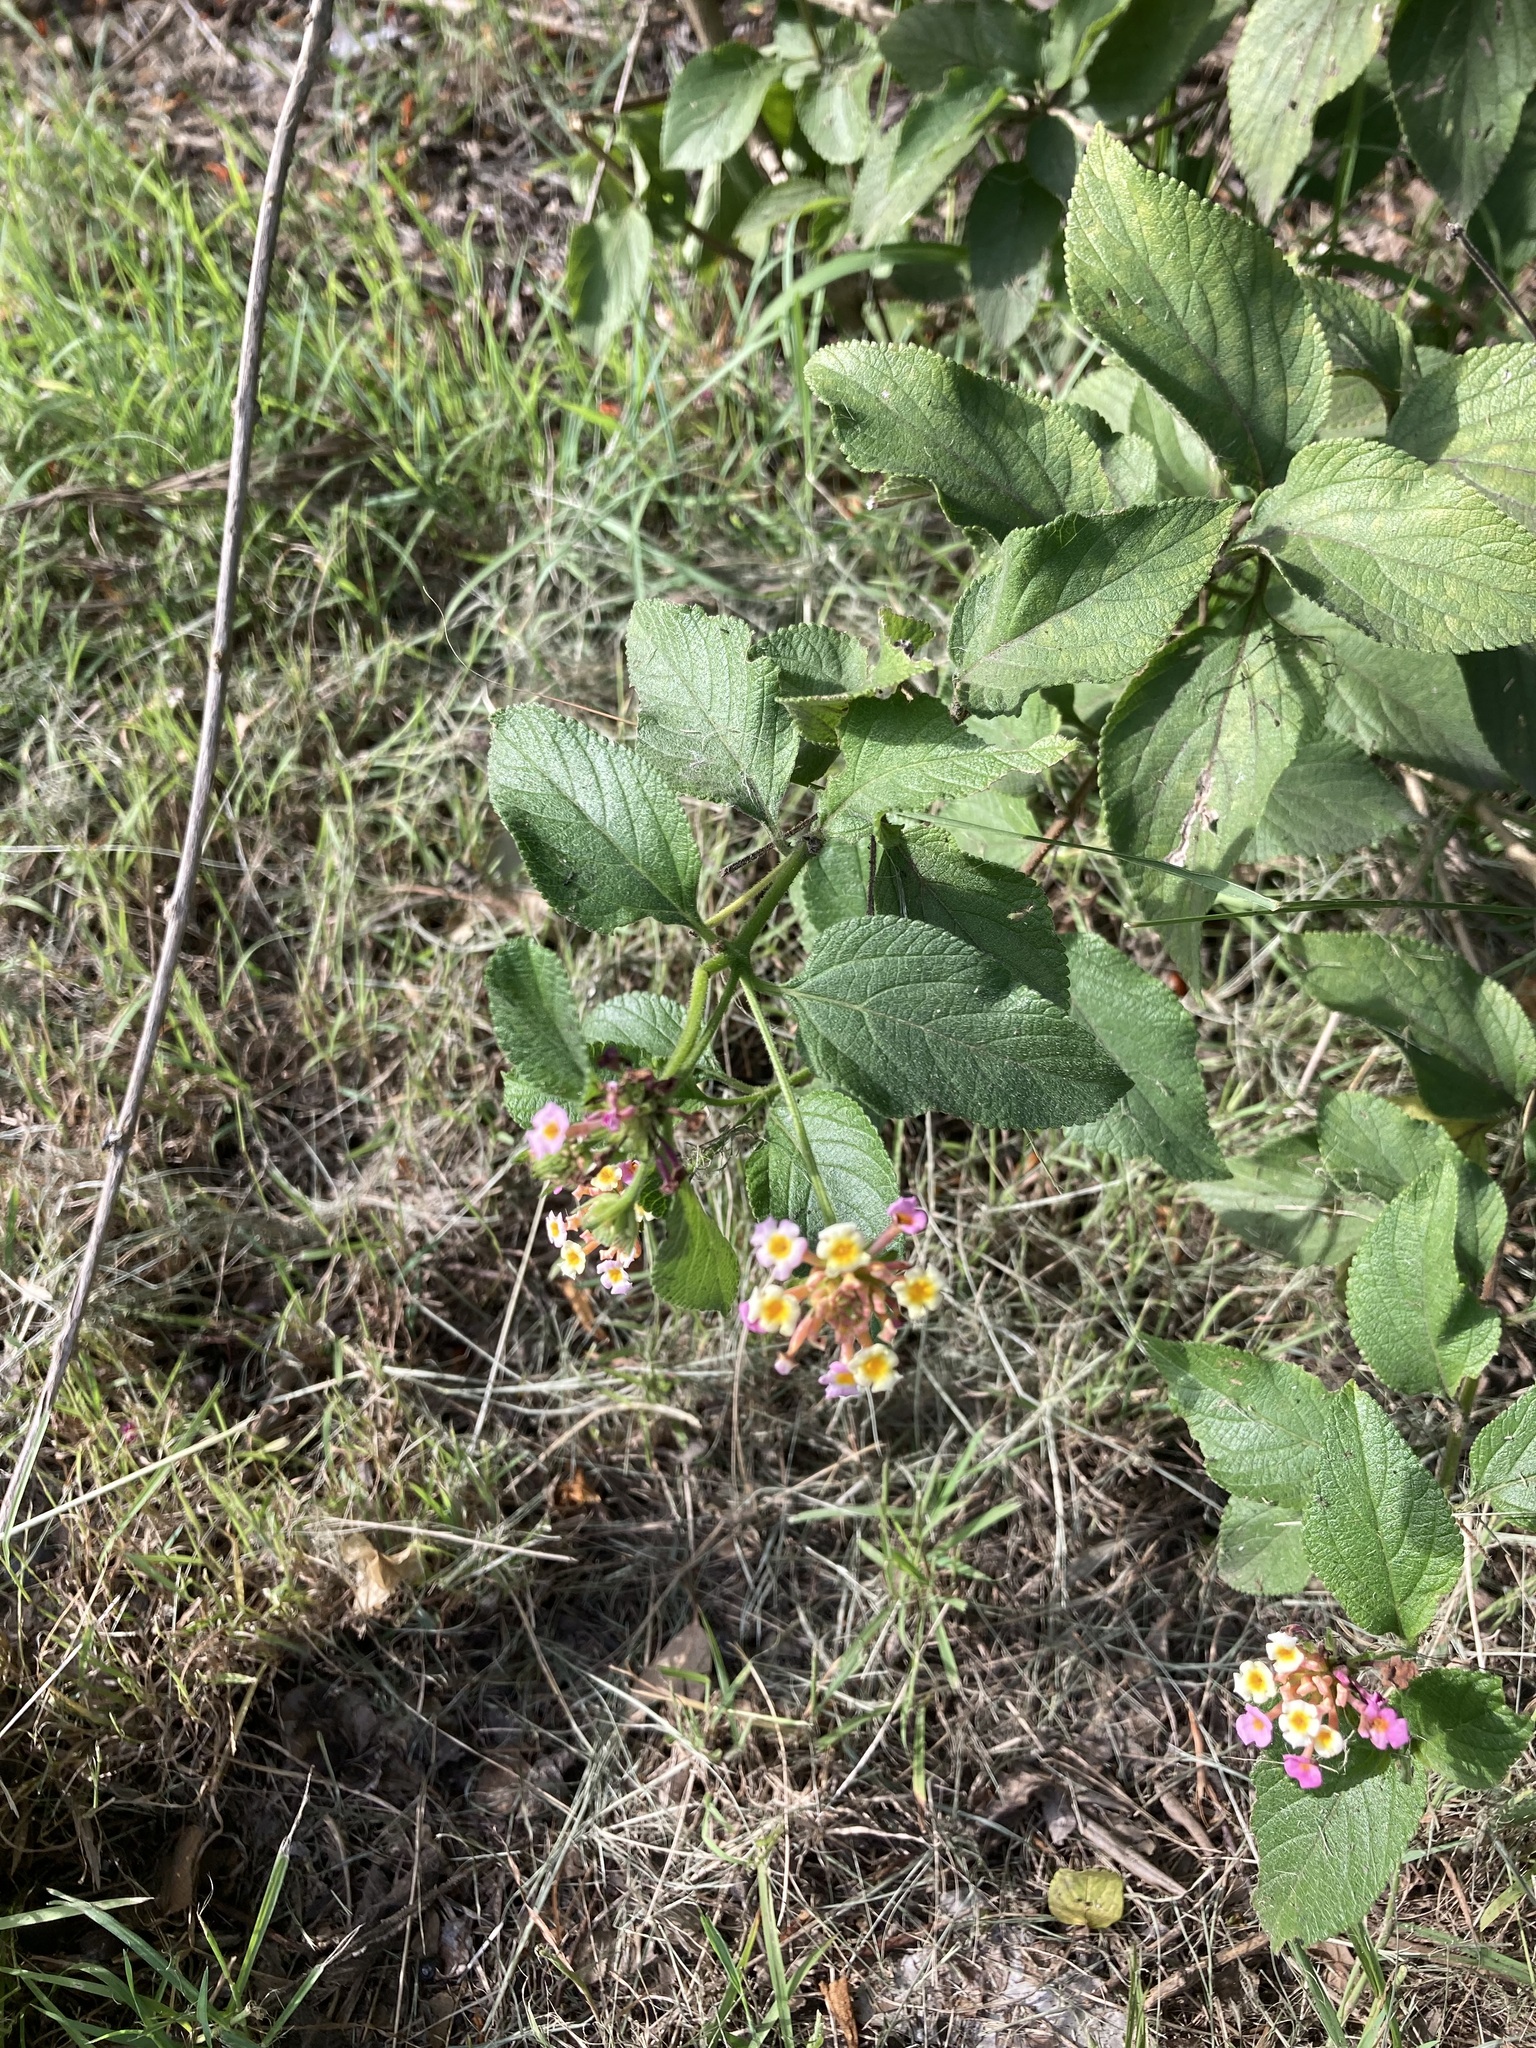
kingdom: Plantae
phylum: Tracheophyta
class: Magnoliopsida
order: Lamiales
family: Verbenaceae
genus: Lantana
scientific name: Lantana camara
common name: Lantana
